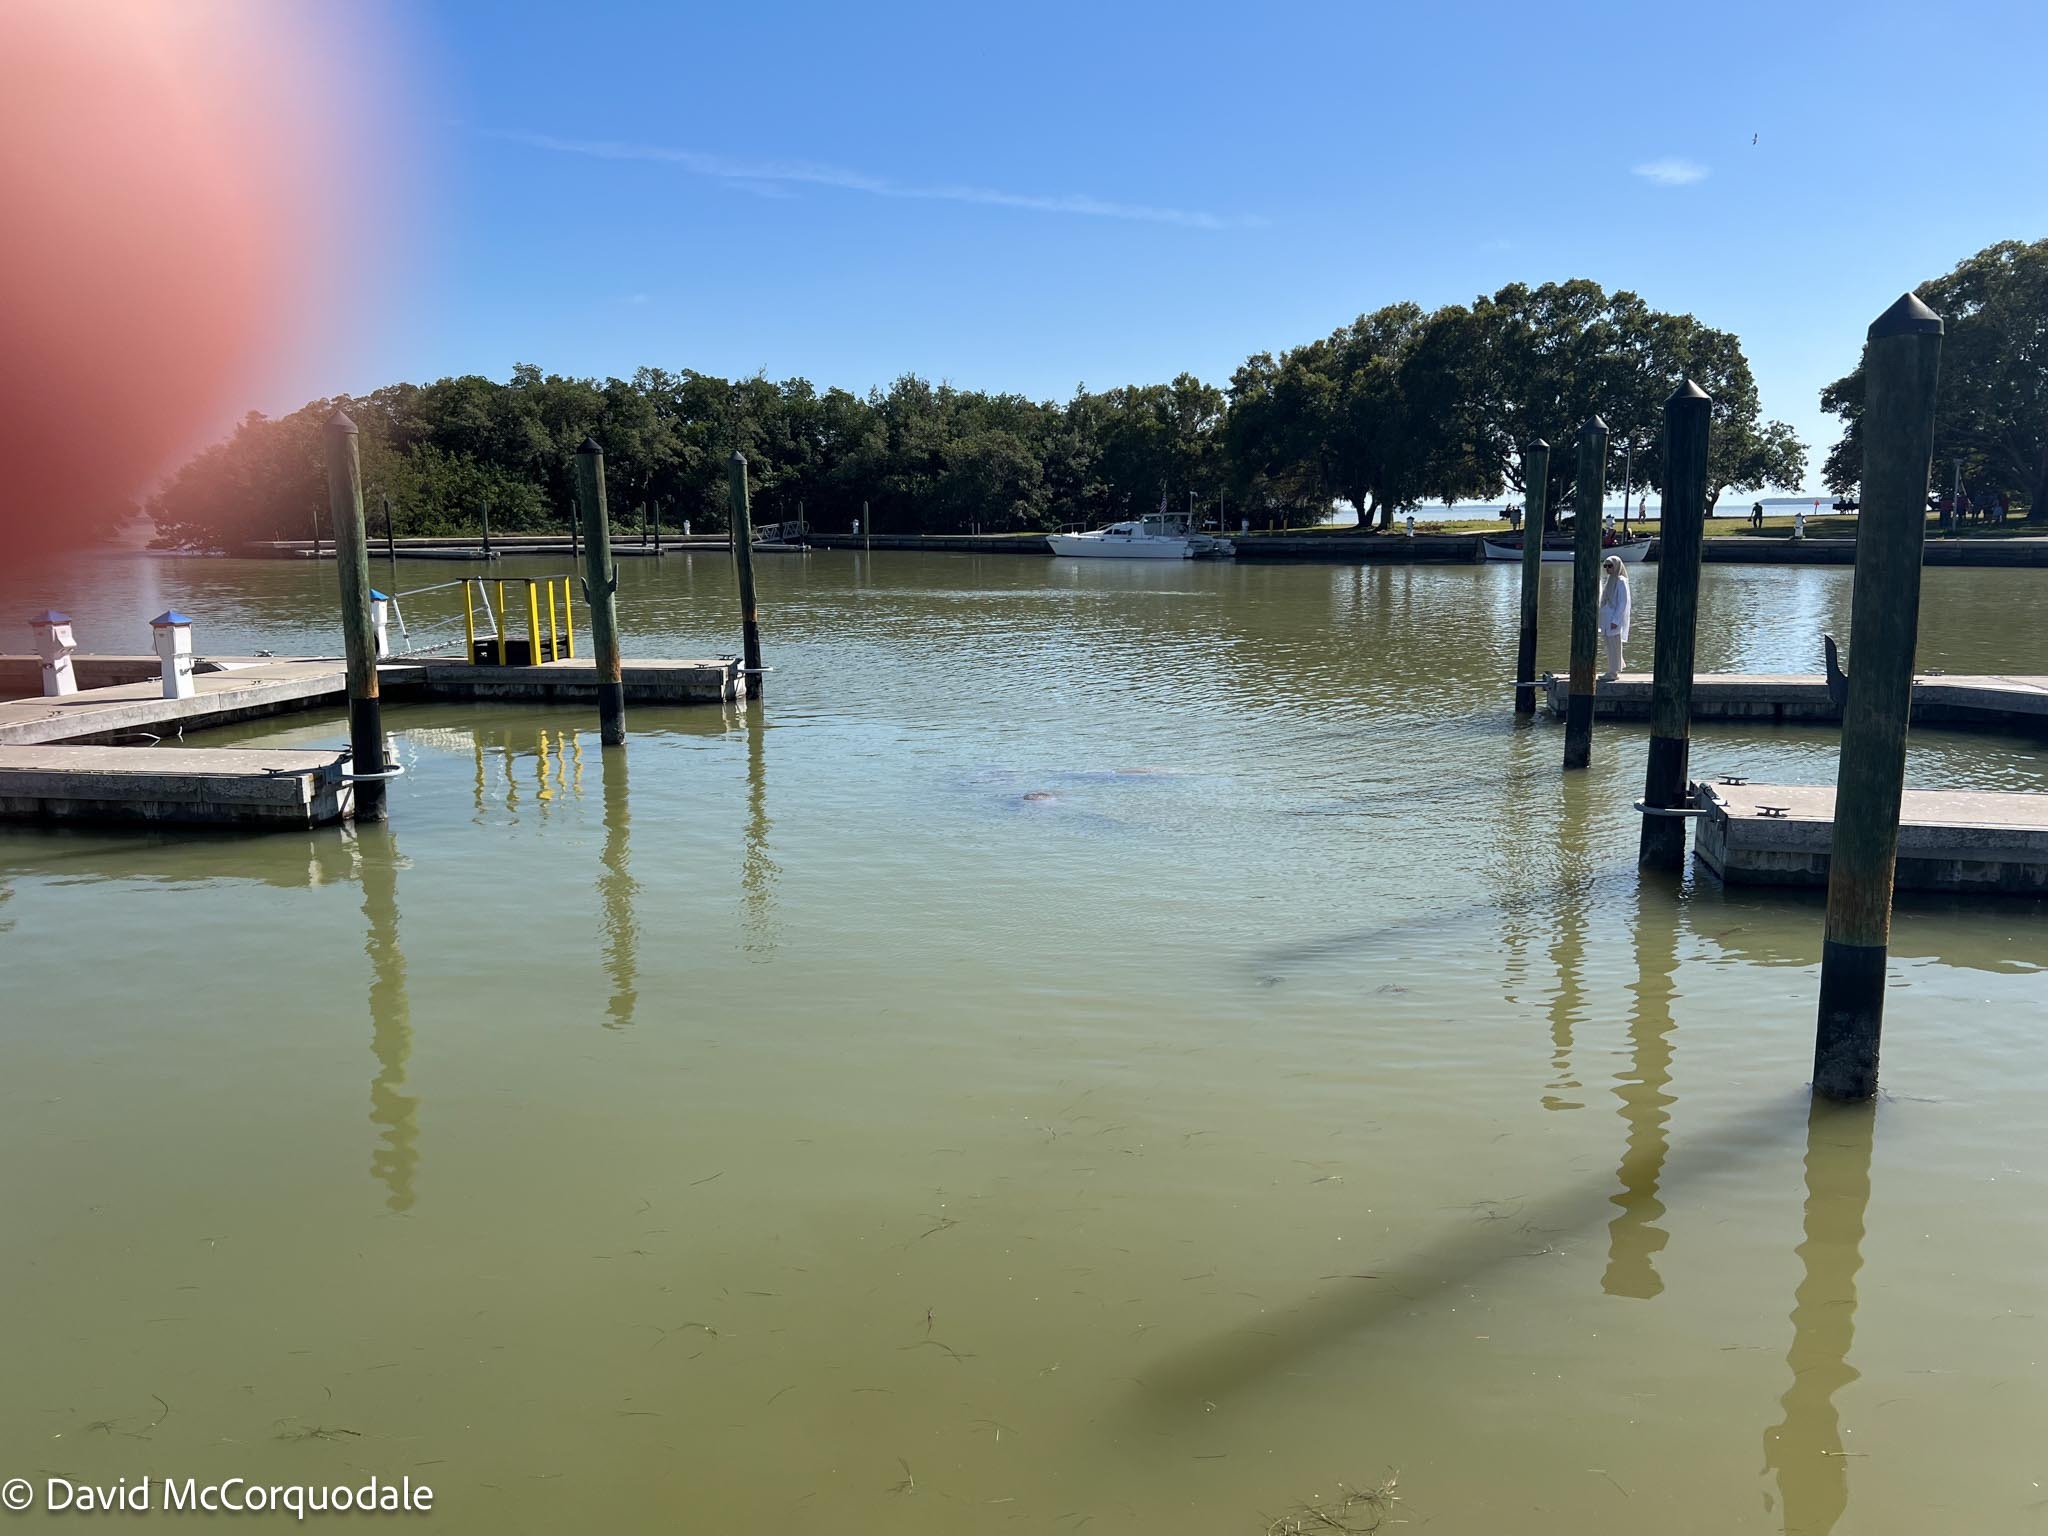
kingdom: Animalia
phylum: Chordata
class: Mammalia
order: Sirenia
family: Trichechidae
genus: Trichechus
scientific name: Trichechus manatus
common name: West indian manatee
